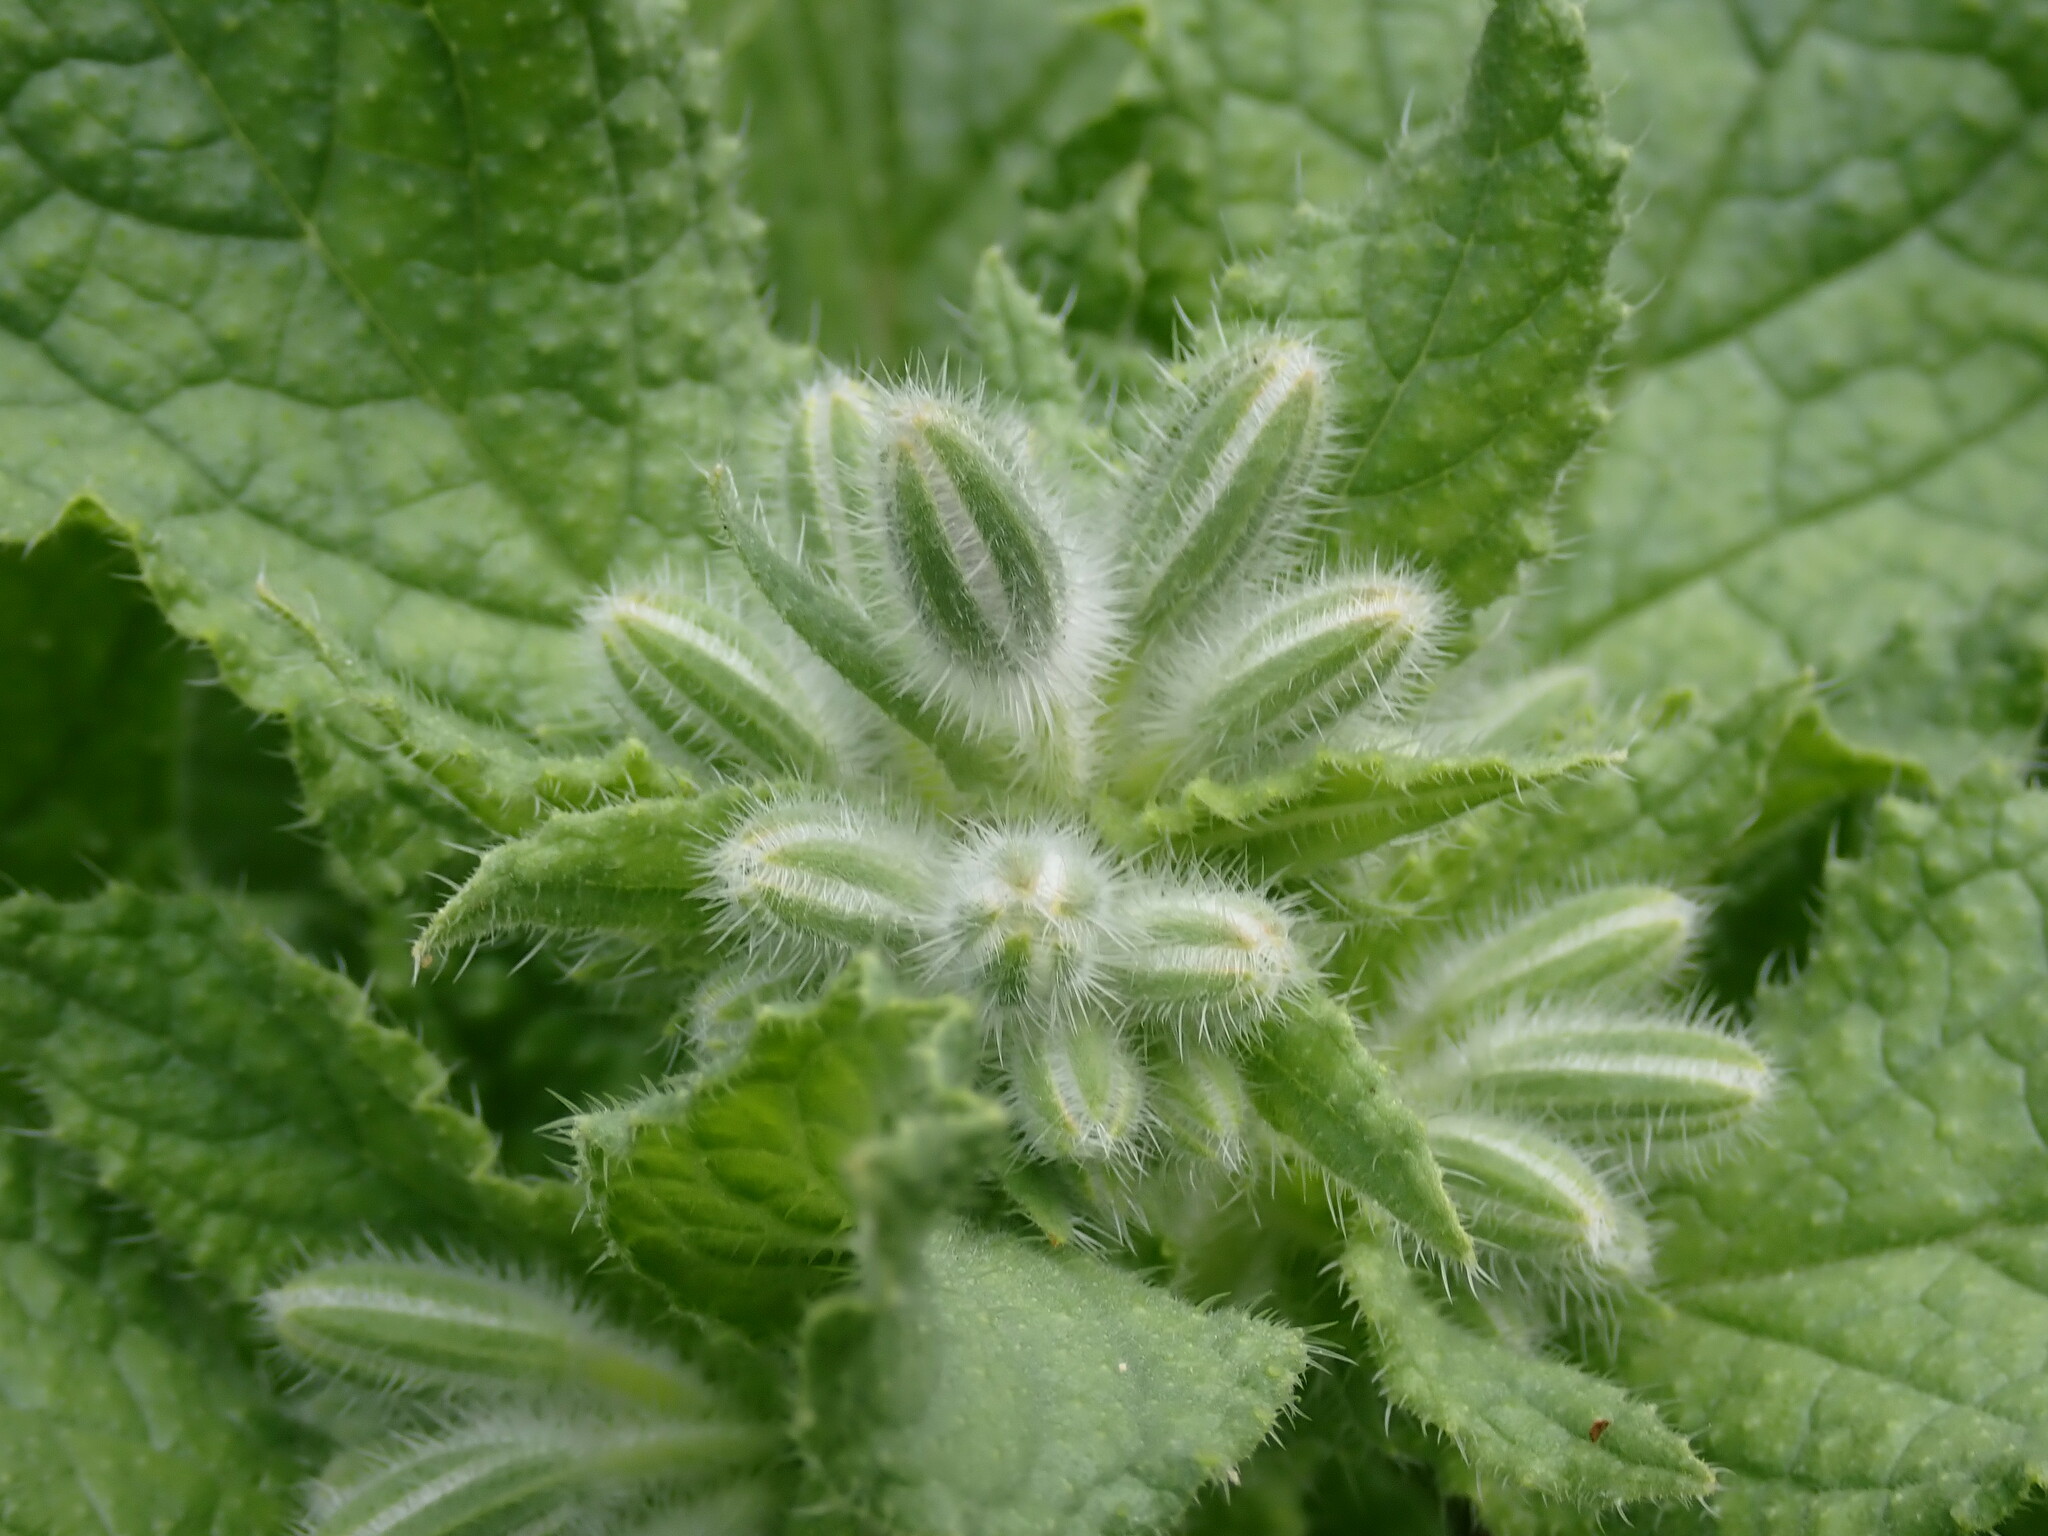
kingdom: Plantae
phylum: Tracheophyta
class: Magnoliopsida
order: Boraginales
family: Boraginaceae
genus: Borago
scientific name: Borago officinalis
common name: Borage
